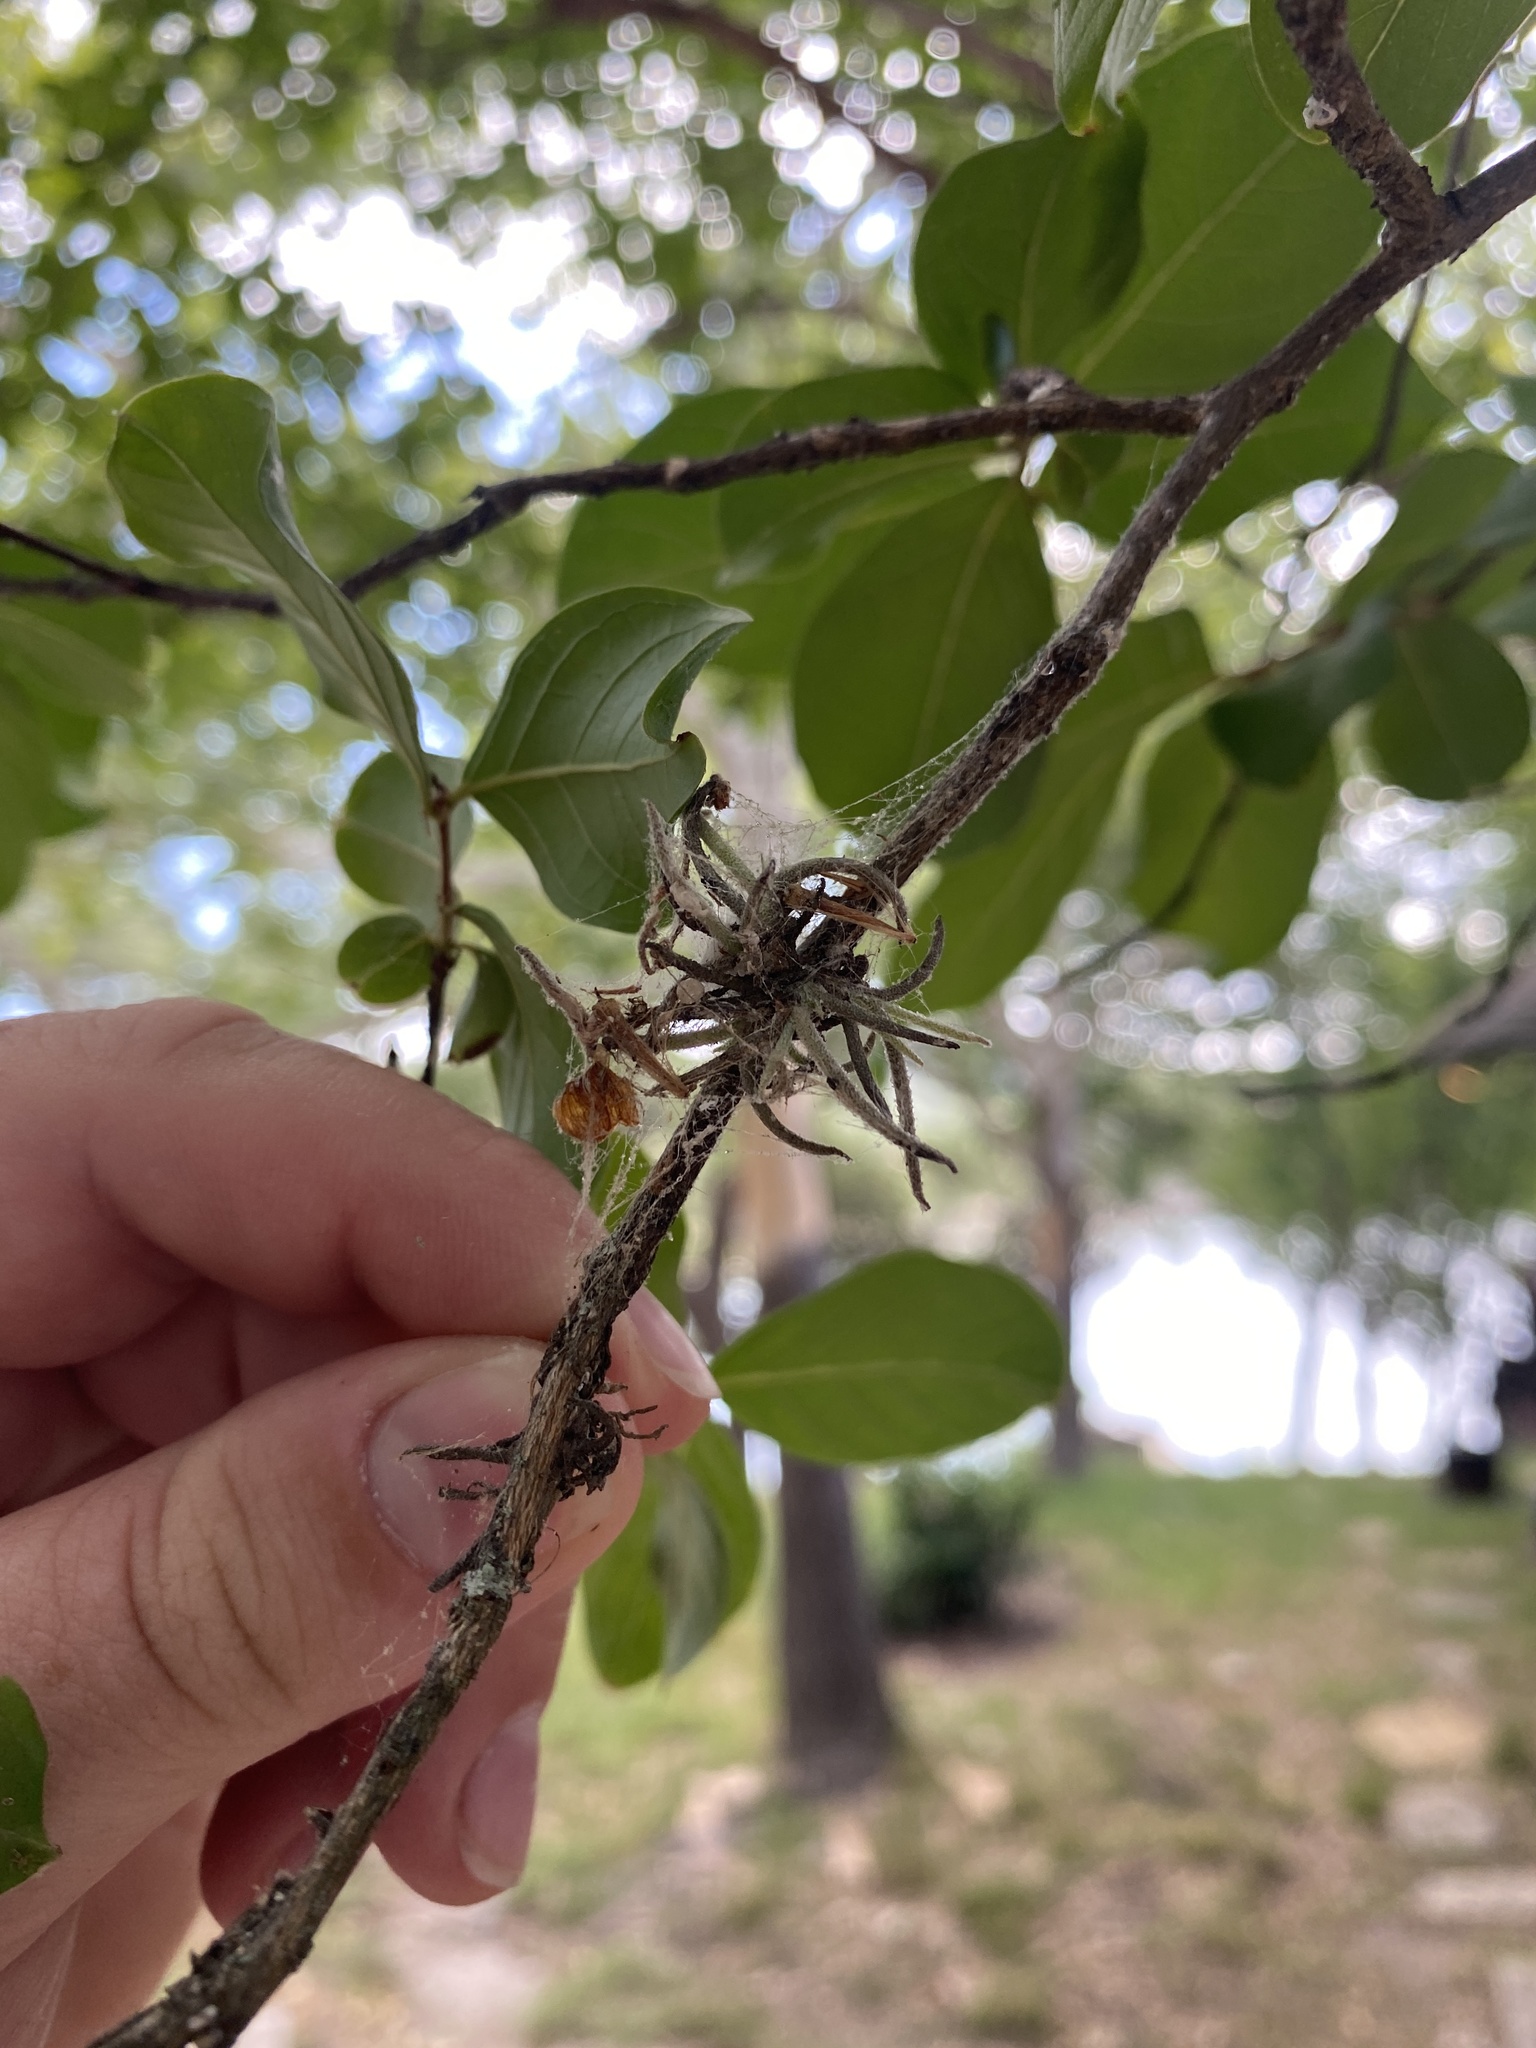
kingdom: Plantae
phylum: Tracheophyta
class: Liliopsida
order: Poales
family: Bromeliaceae
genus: Tillandsia
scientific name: Tillandsia recurvata
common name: Small ballmoss
